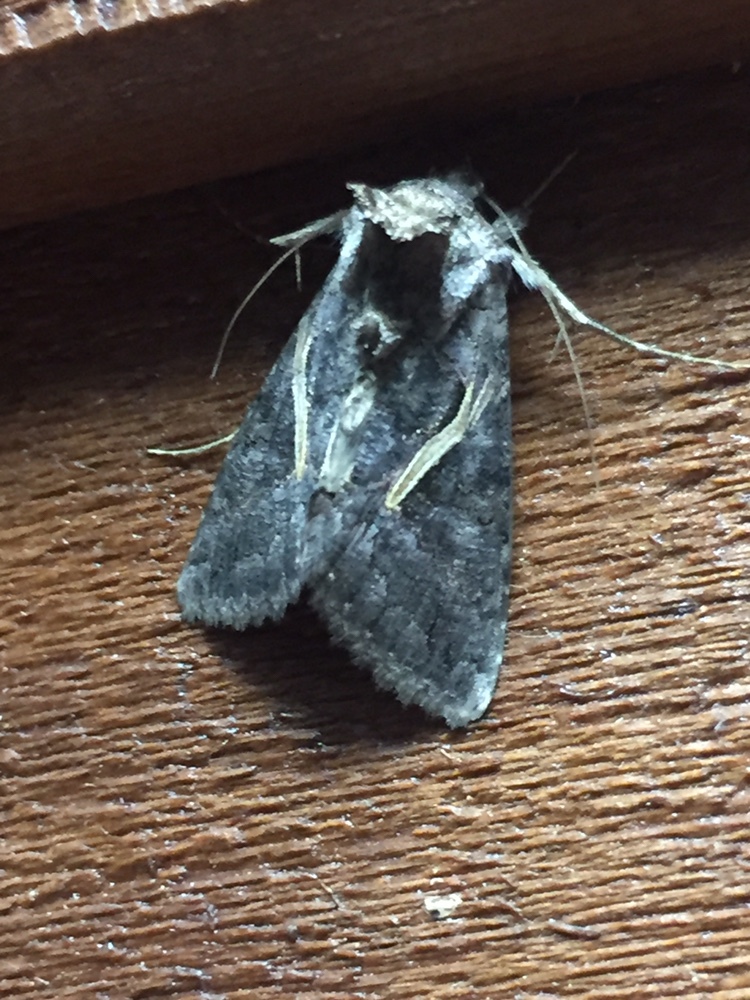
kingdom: Animalia
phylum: Arthropoda
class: Insecta
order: Lepidoptera
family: Noctuidae
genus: Ctenoplusia
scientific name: Ctenoplusia albostriata
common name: Moth
